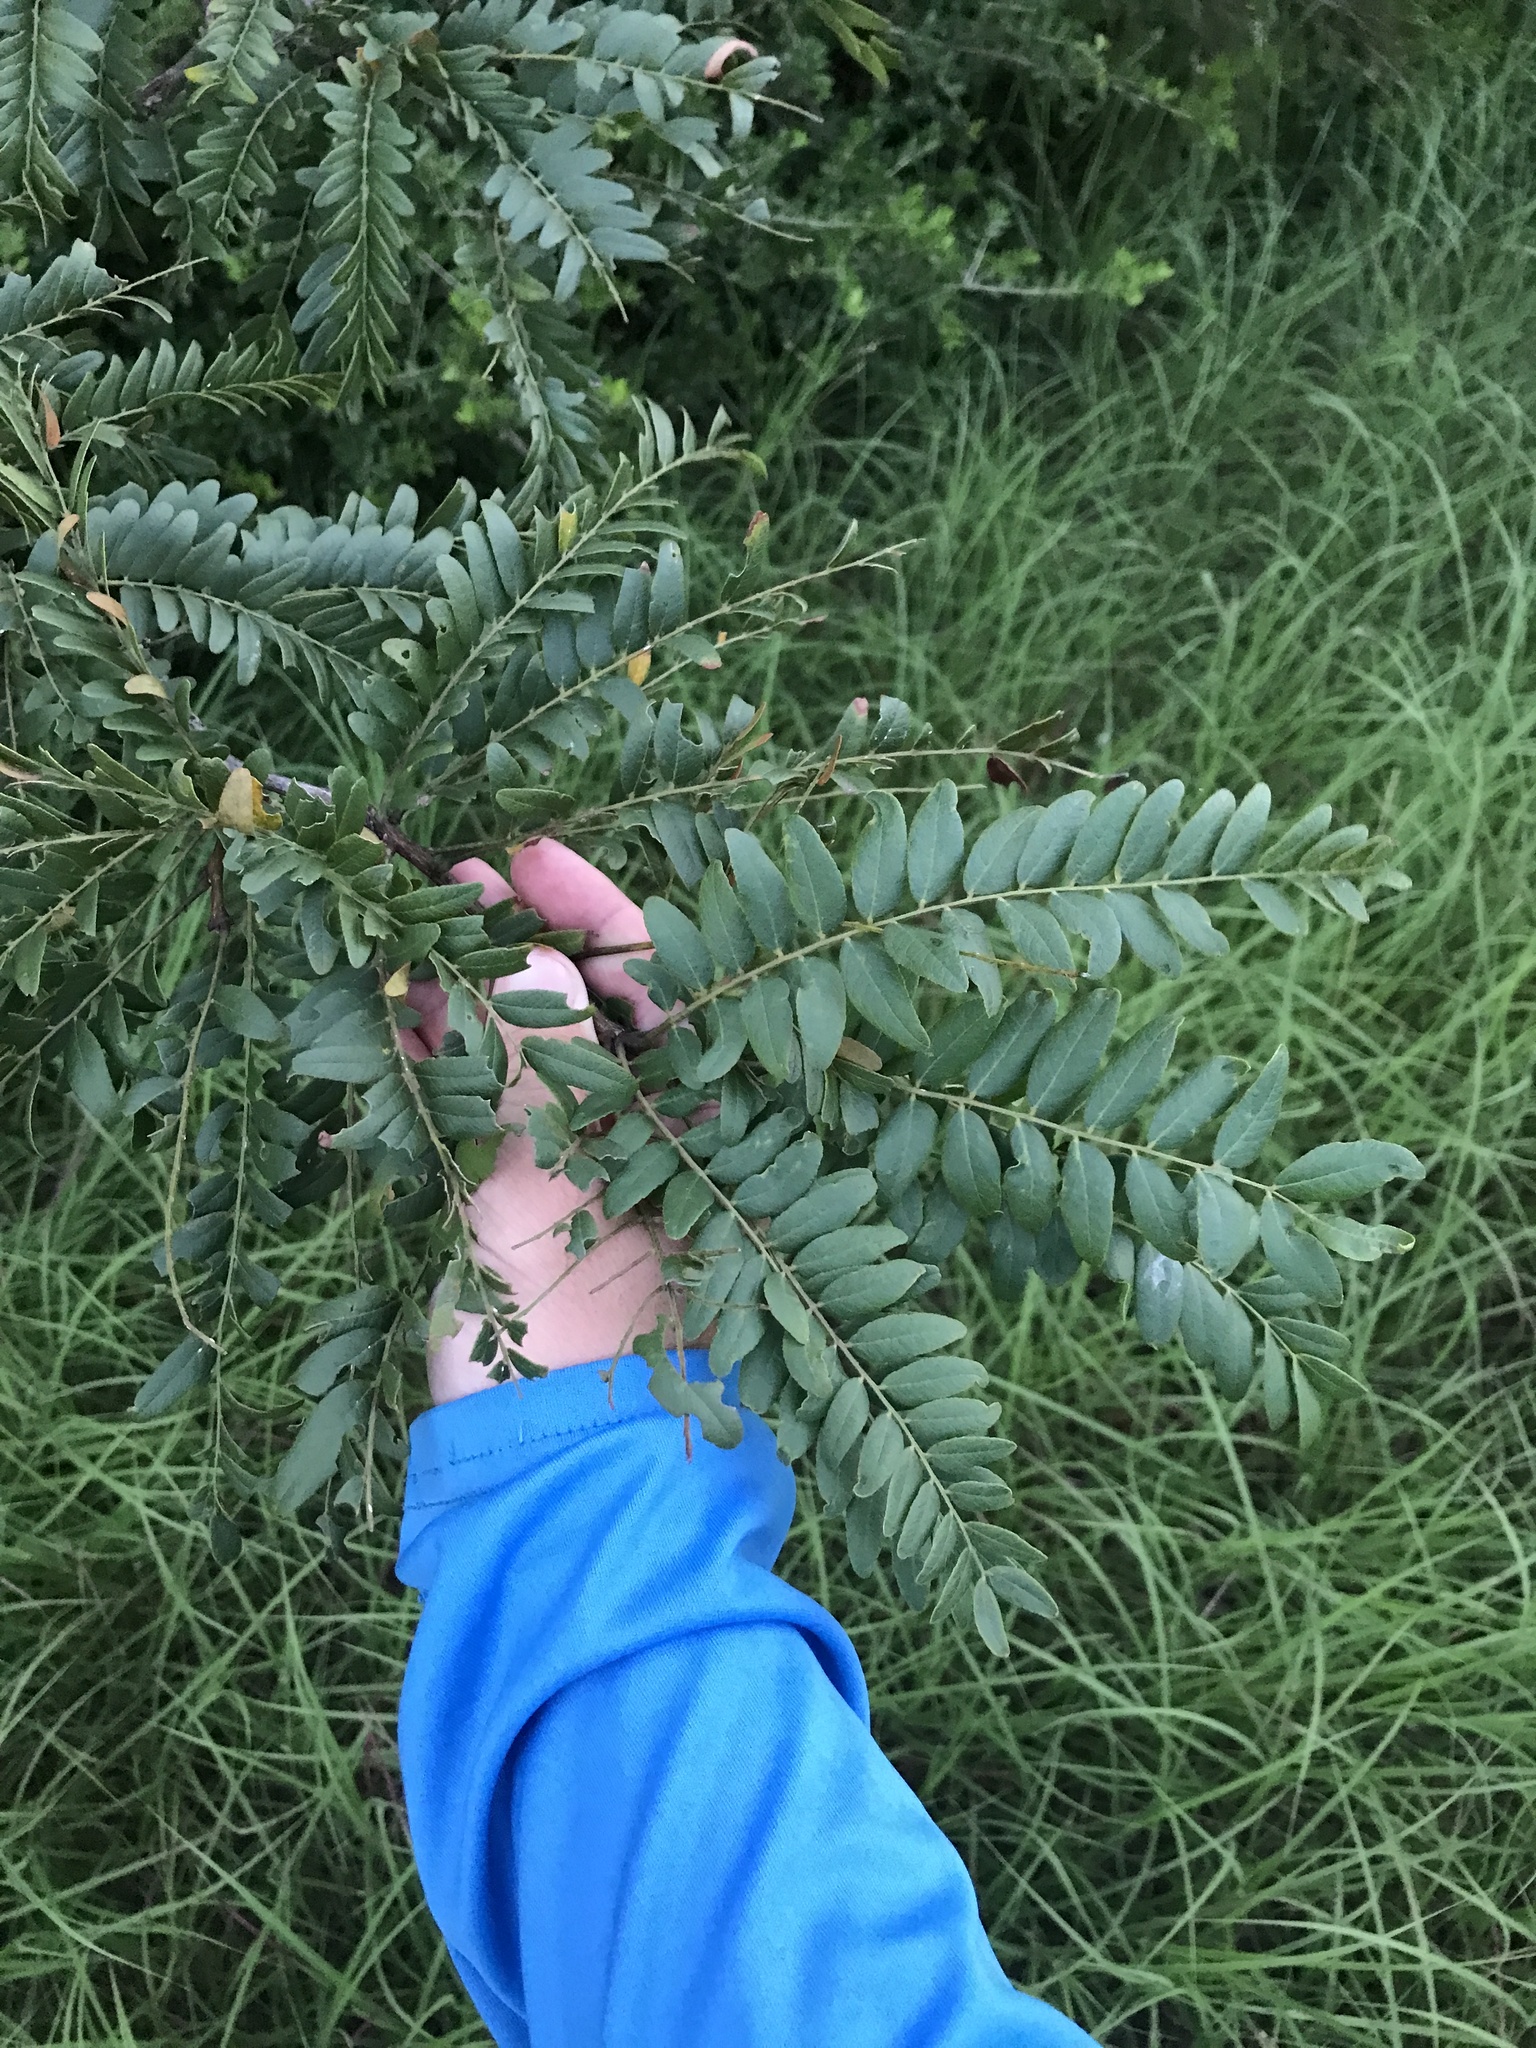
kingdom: Plantae
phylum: Tracheophyta
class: Magnoliopsida
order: Fabales
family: Fabaceae
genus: Gleditsia
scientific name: Gleditsia triacanthos
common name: Common honeylocust
